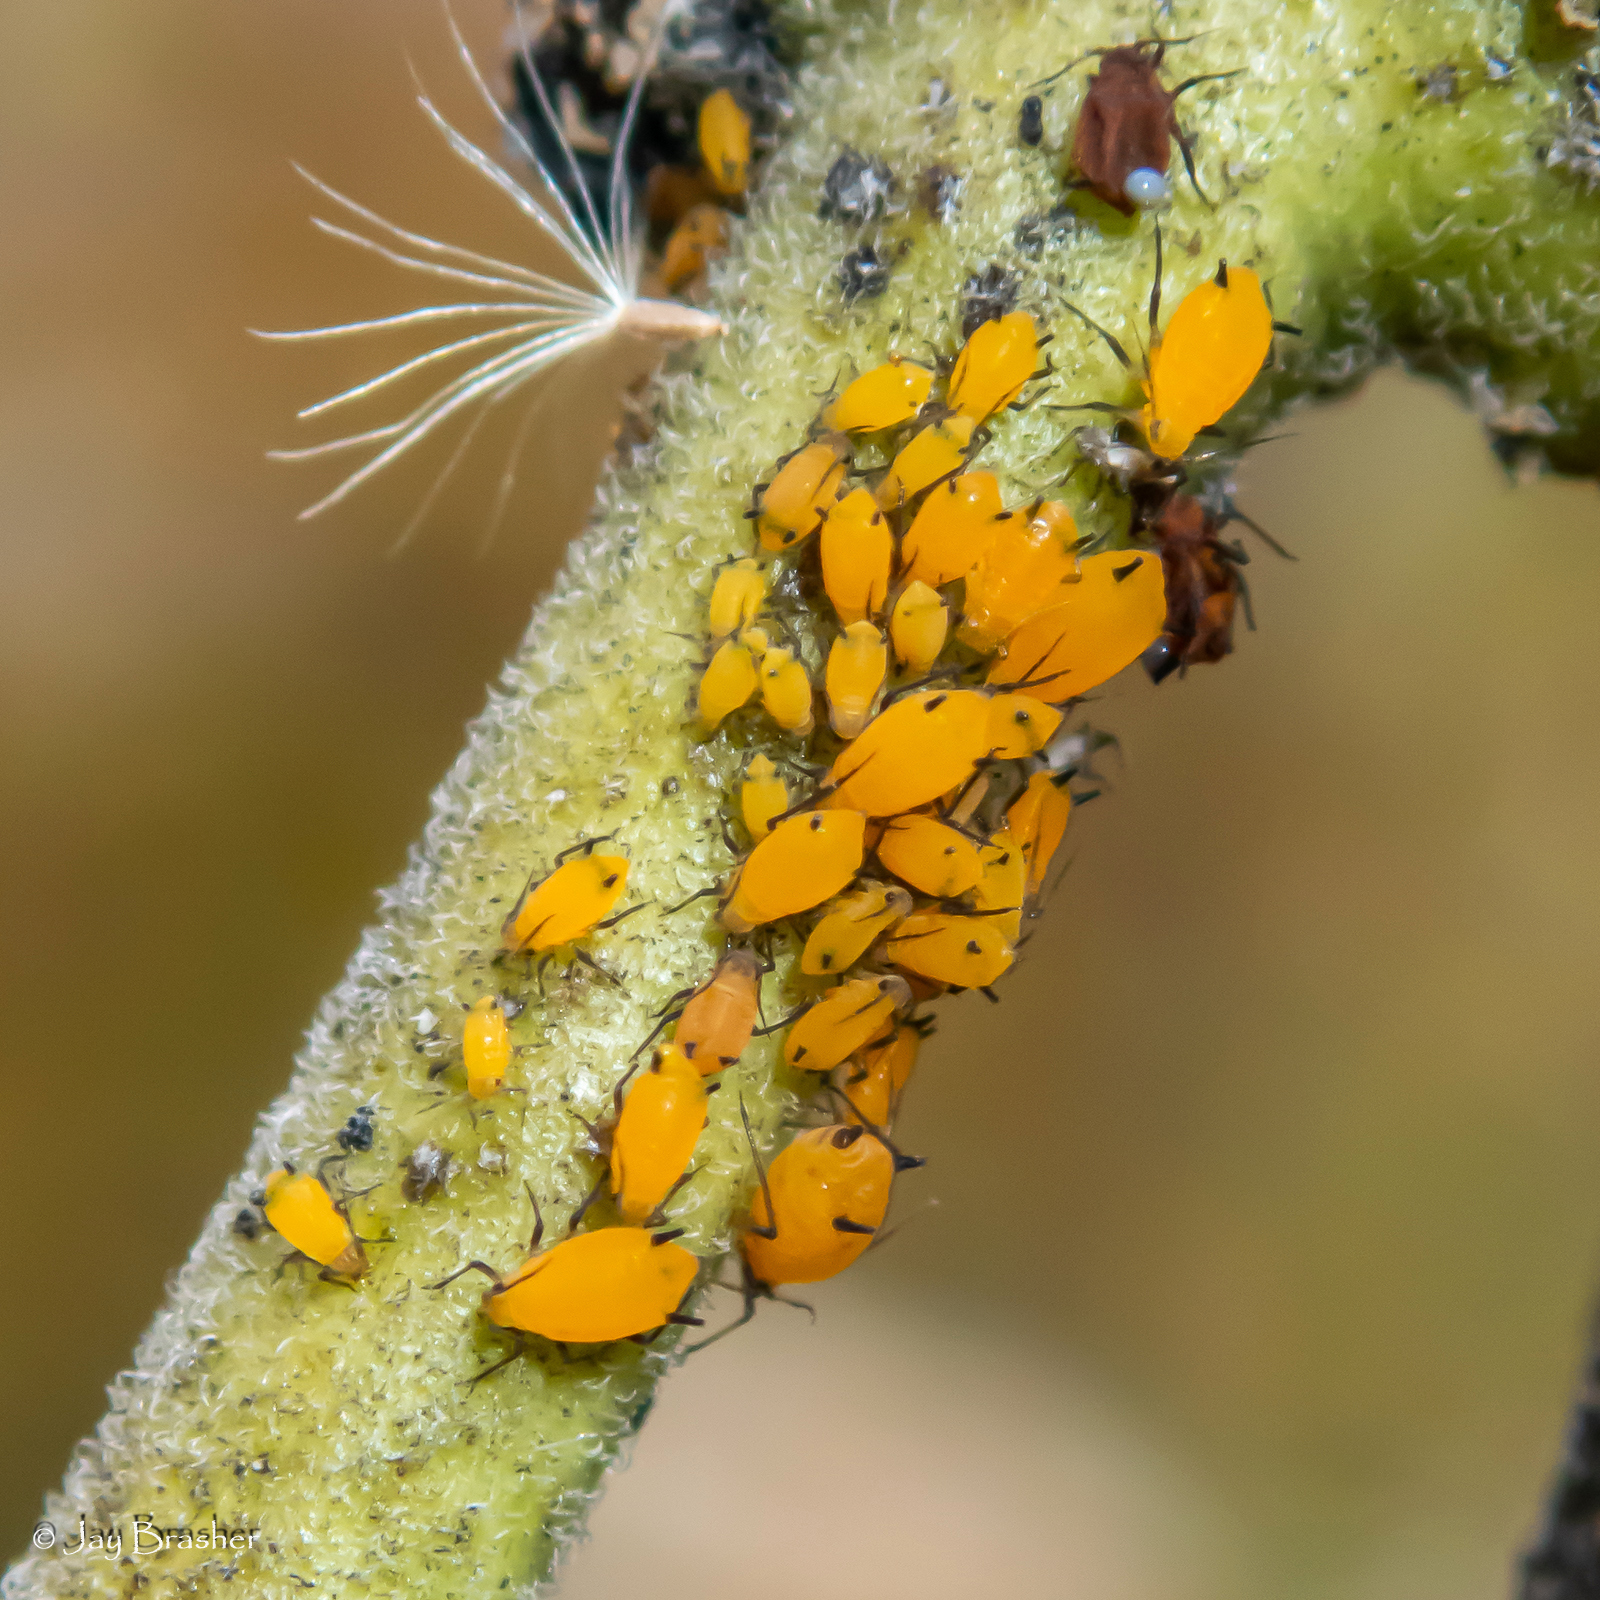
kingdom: Animalia
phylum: Arthropoda
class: Insecta
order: Hemiptera
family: Aphididae
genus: Aphis
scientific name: Aphis nerii
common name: Oleander aphid
